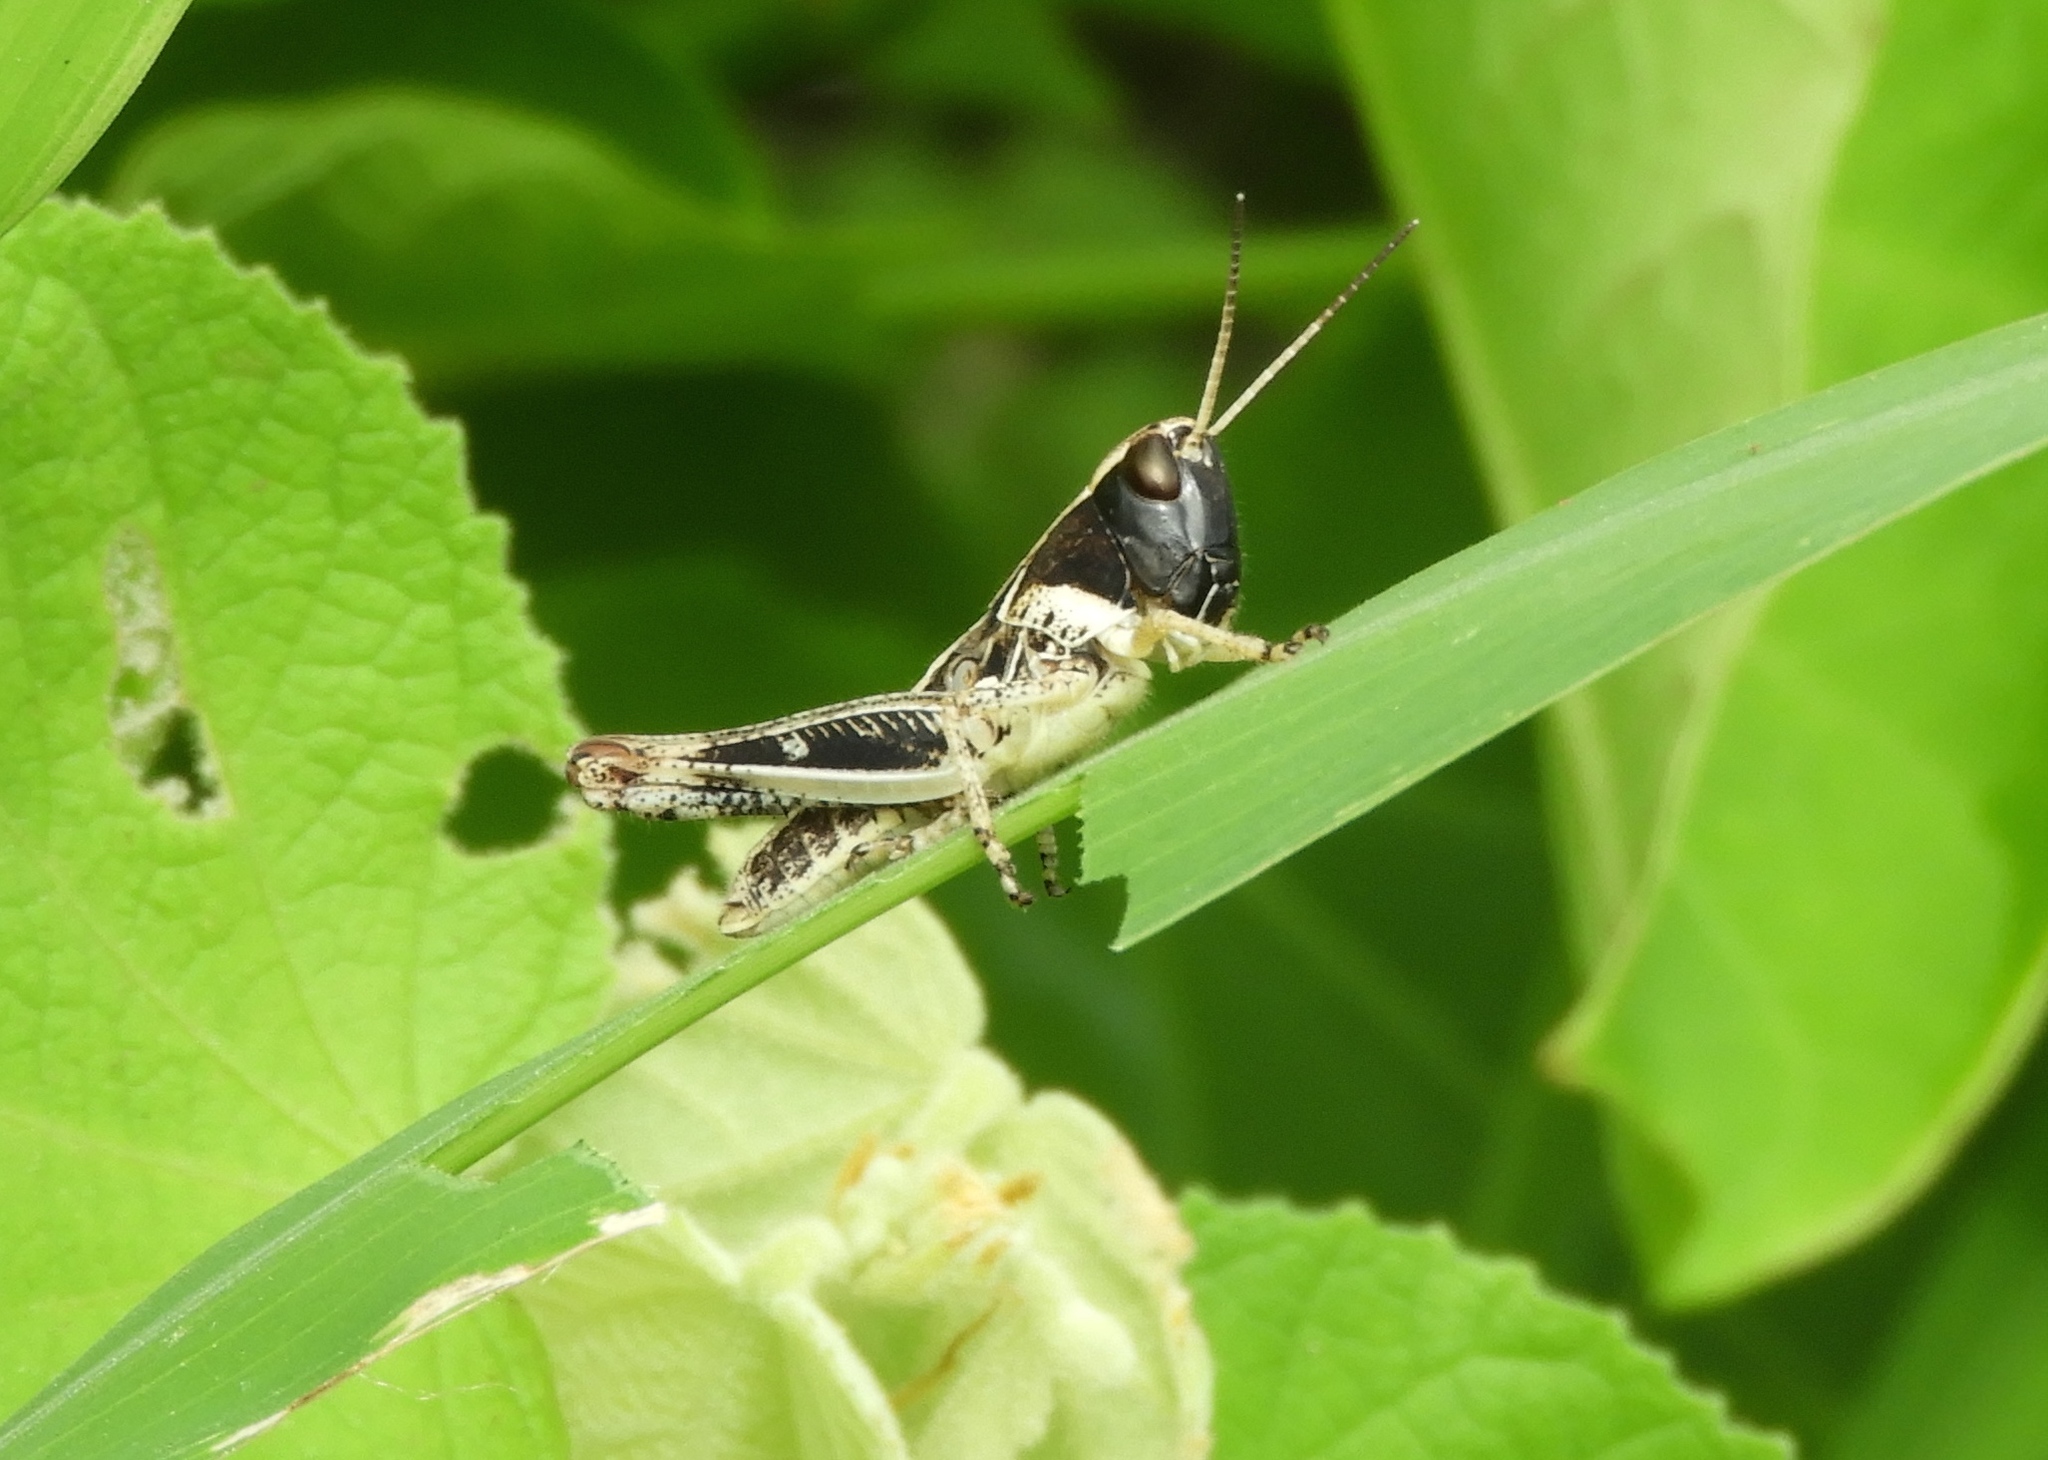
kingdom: Animalia
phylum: Arthropoda
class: Insecta
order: Orthoptera
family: Acrididae
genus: Boopedon
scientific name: Boopedon flaviventris
